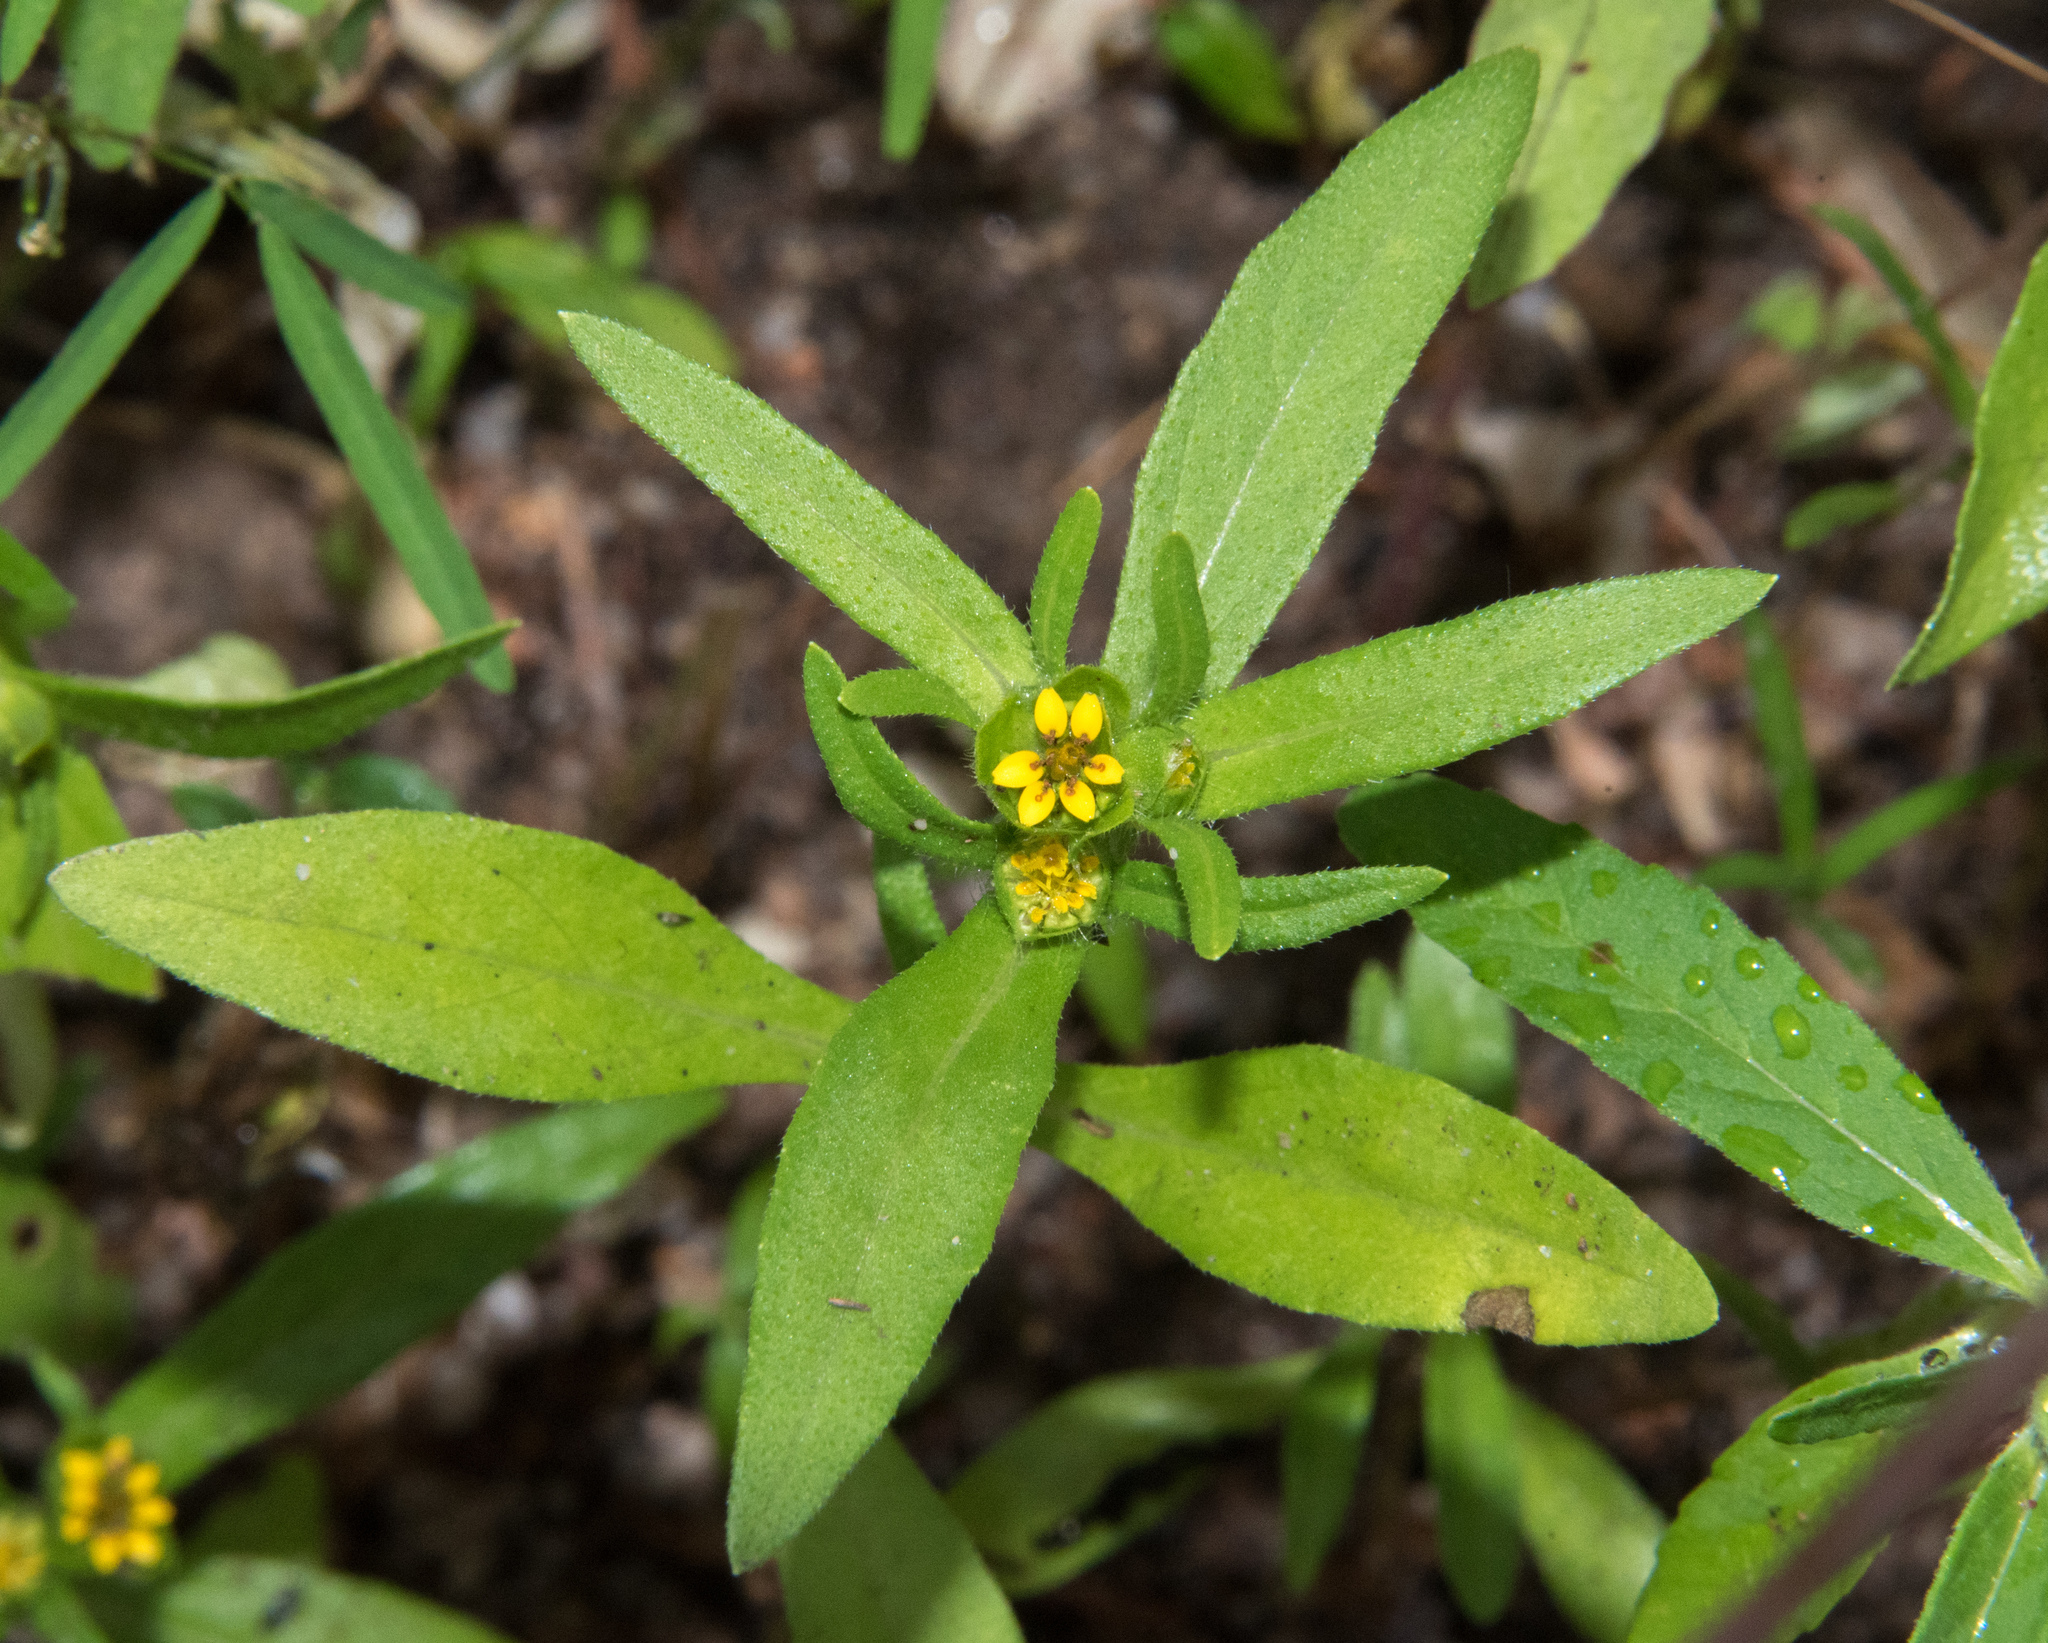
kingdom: Plantae
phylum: Tracheophyta
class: Magnoliopsida
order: Asterales
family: Asteraceae
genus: Melampodium
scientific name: Melampodium strigosum
